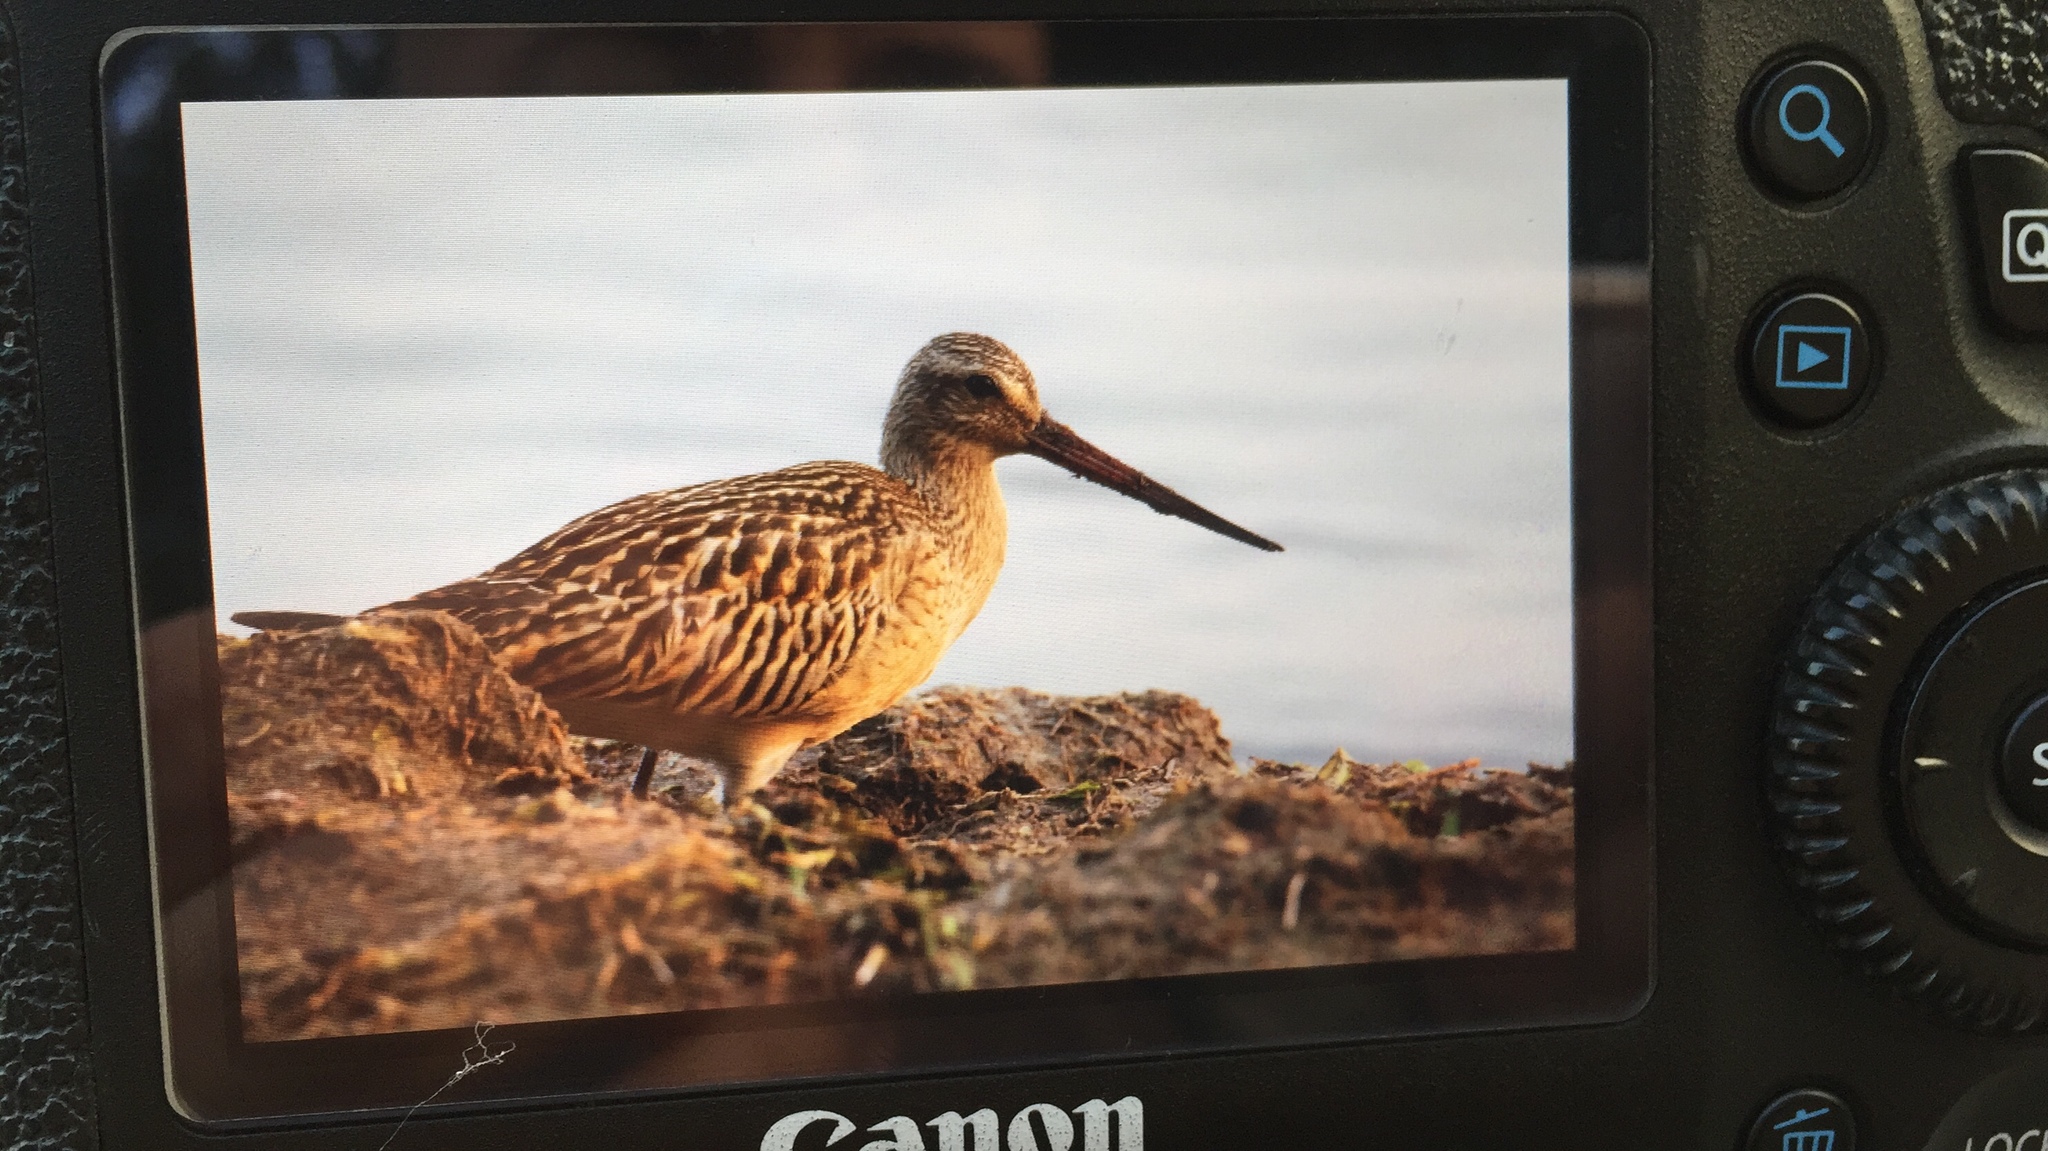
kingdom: Animalia
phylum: Chordata
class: Aves
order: Charadriiformes
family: Scolopacidae
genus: Limosa
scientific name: Limosa lapponica
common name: Bar-tailed godwit
